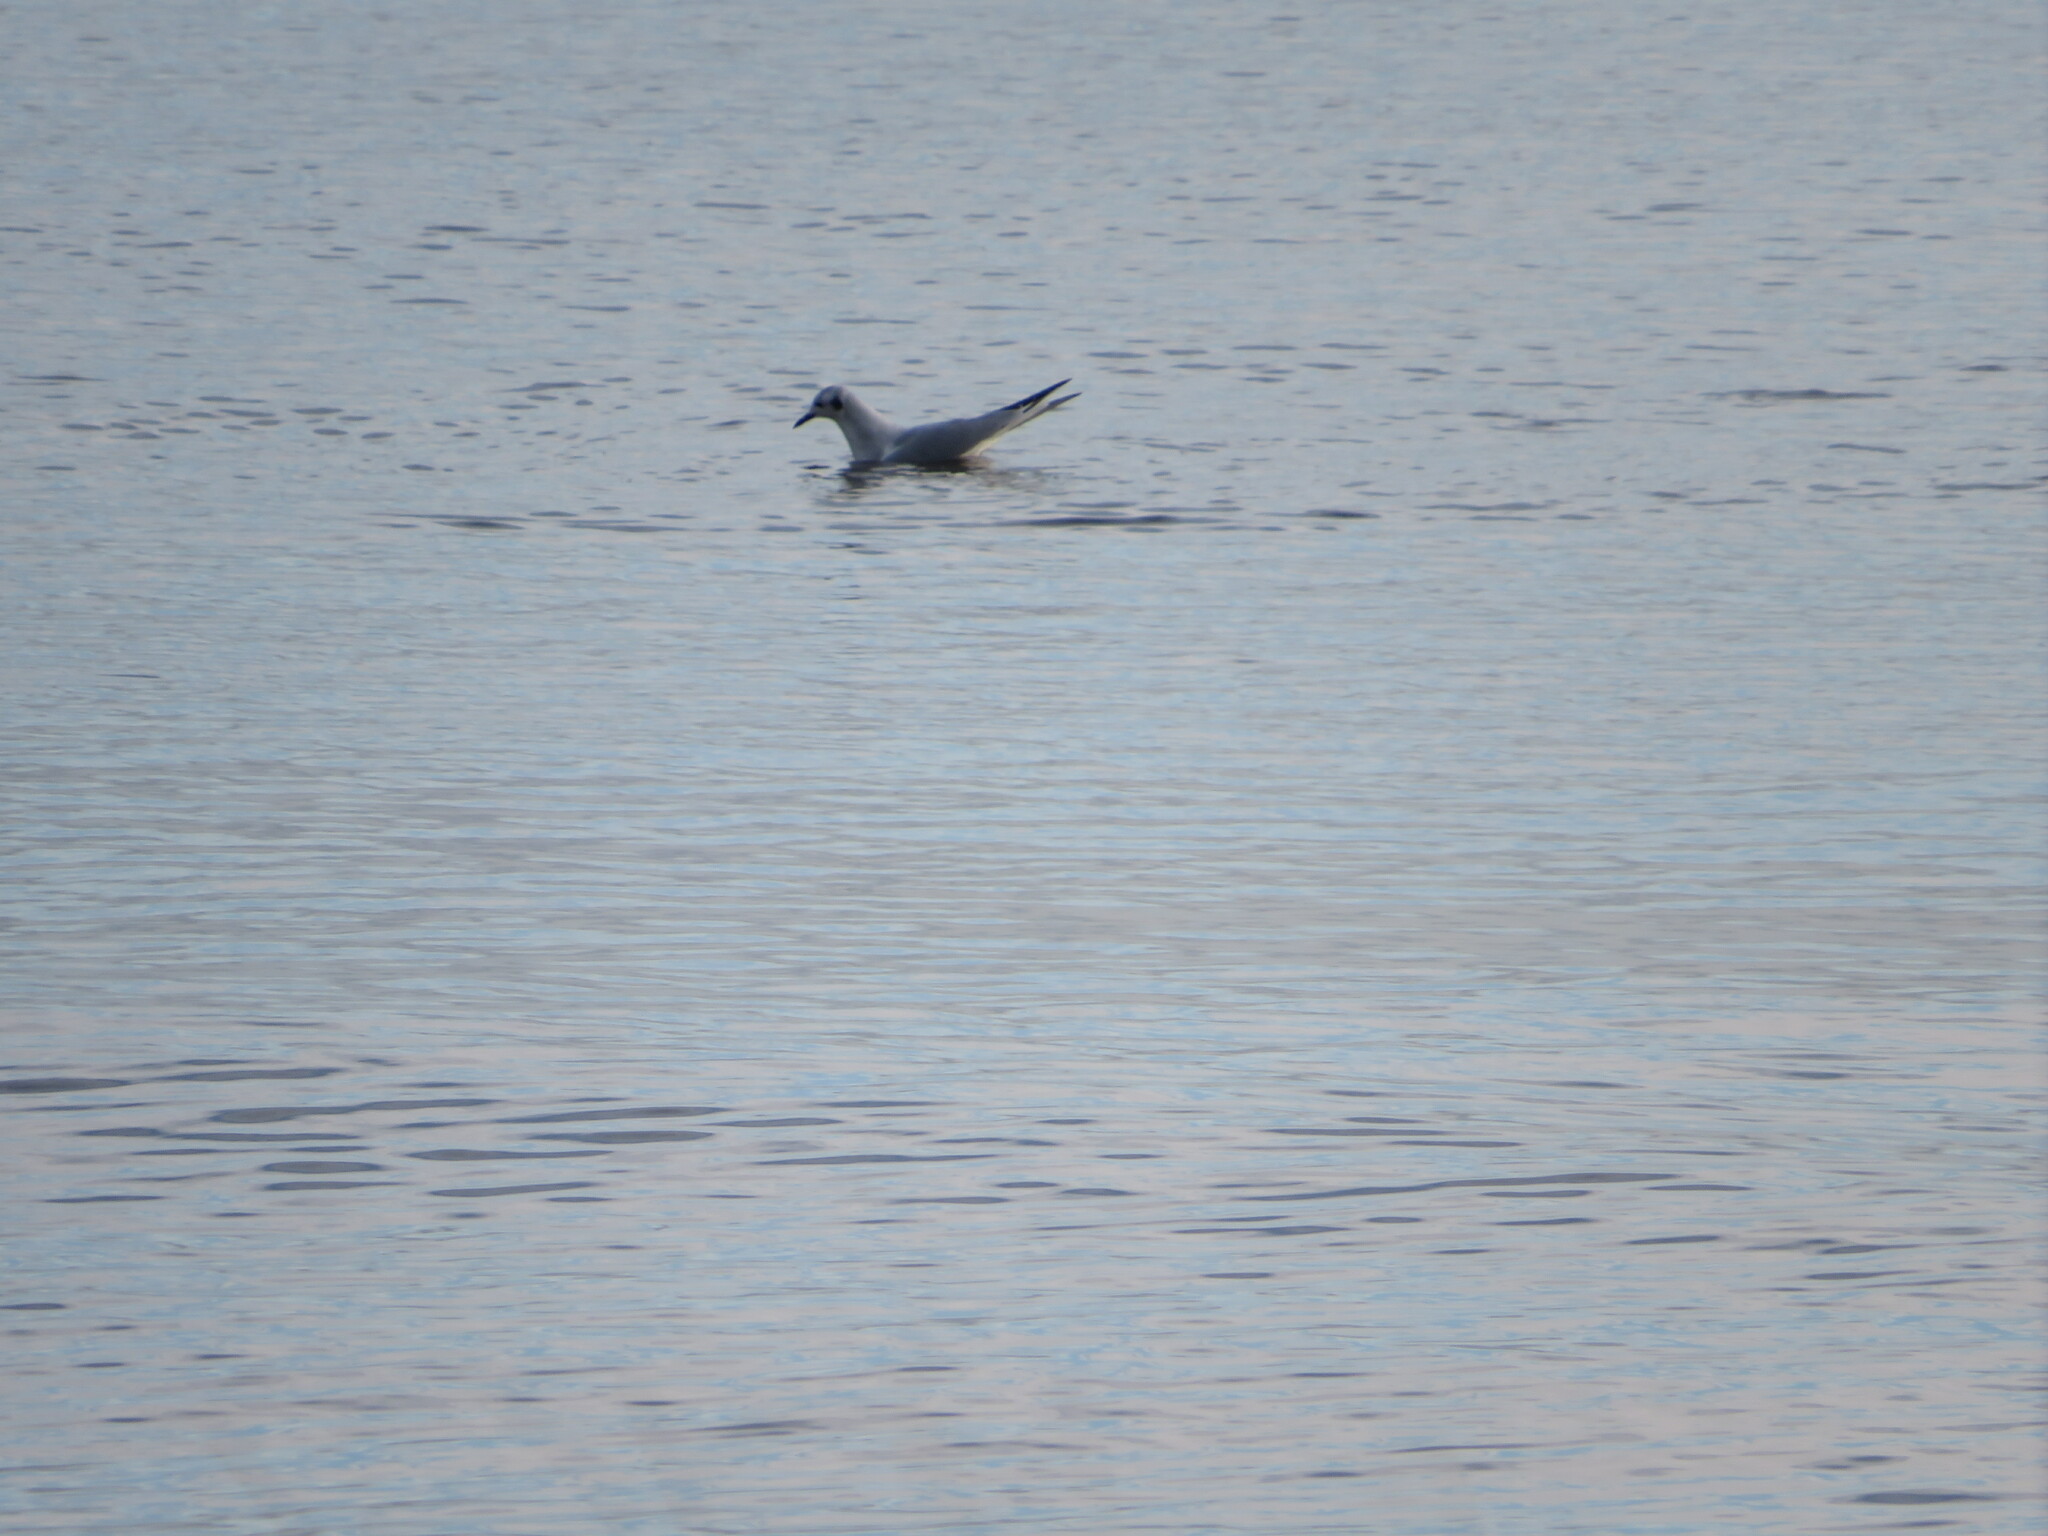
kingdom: Animalia
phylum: Chordata
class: Aves
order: Charadriiformes
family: Laridae
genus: Chroicocephalus
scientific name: Chroicocephalus philadelphia
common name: Bonaparte's gull
